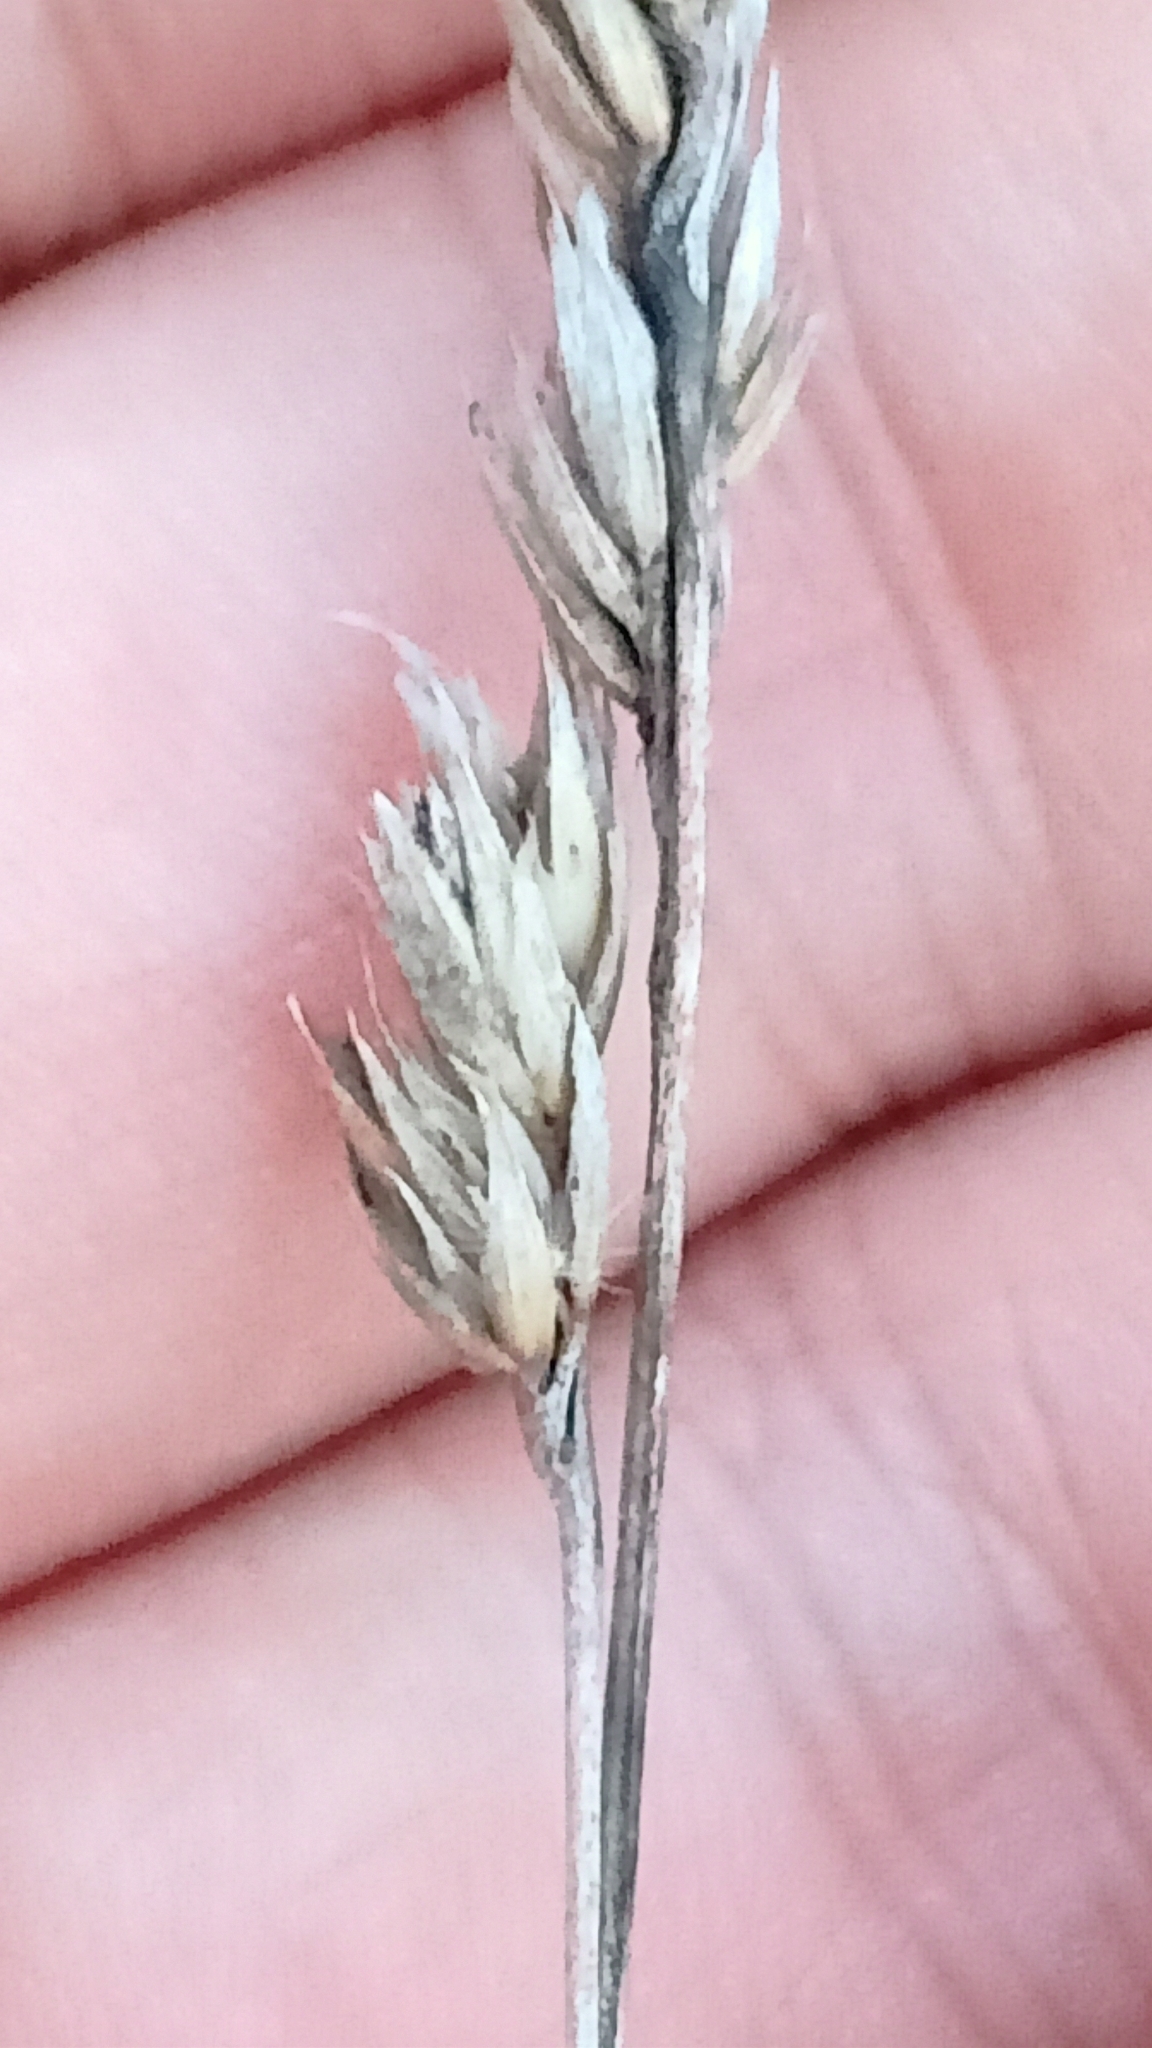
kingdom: Plantae
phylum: Tracheophyta
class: Liliopsida
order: Poales
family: Poaceae
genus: Dactylis
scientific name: Dactylis glomerata
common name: Orchardgrass
